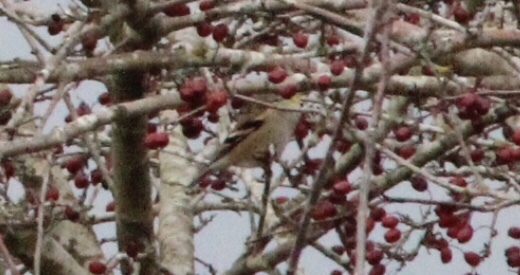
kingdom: Animalia
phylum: Chordata
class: Aves
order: Passeriformes
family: Fringillidae
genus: Spinus
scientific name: Spinus tristis
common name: American goldfinch
